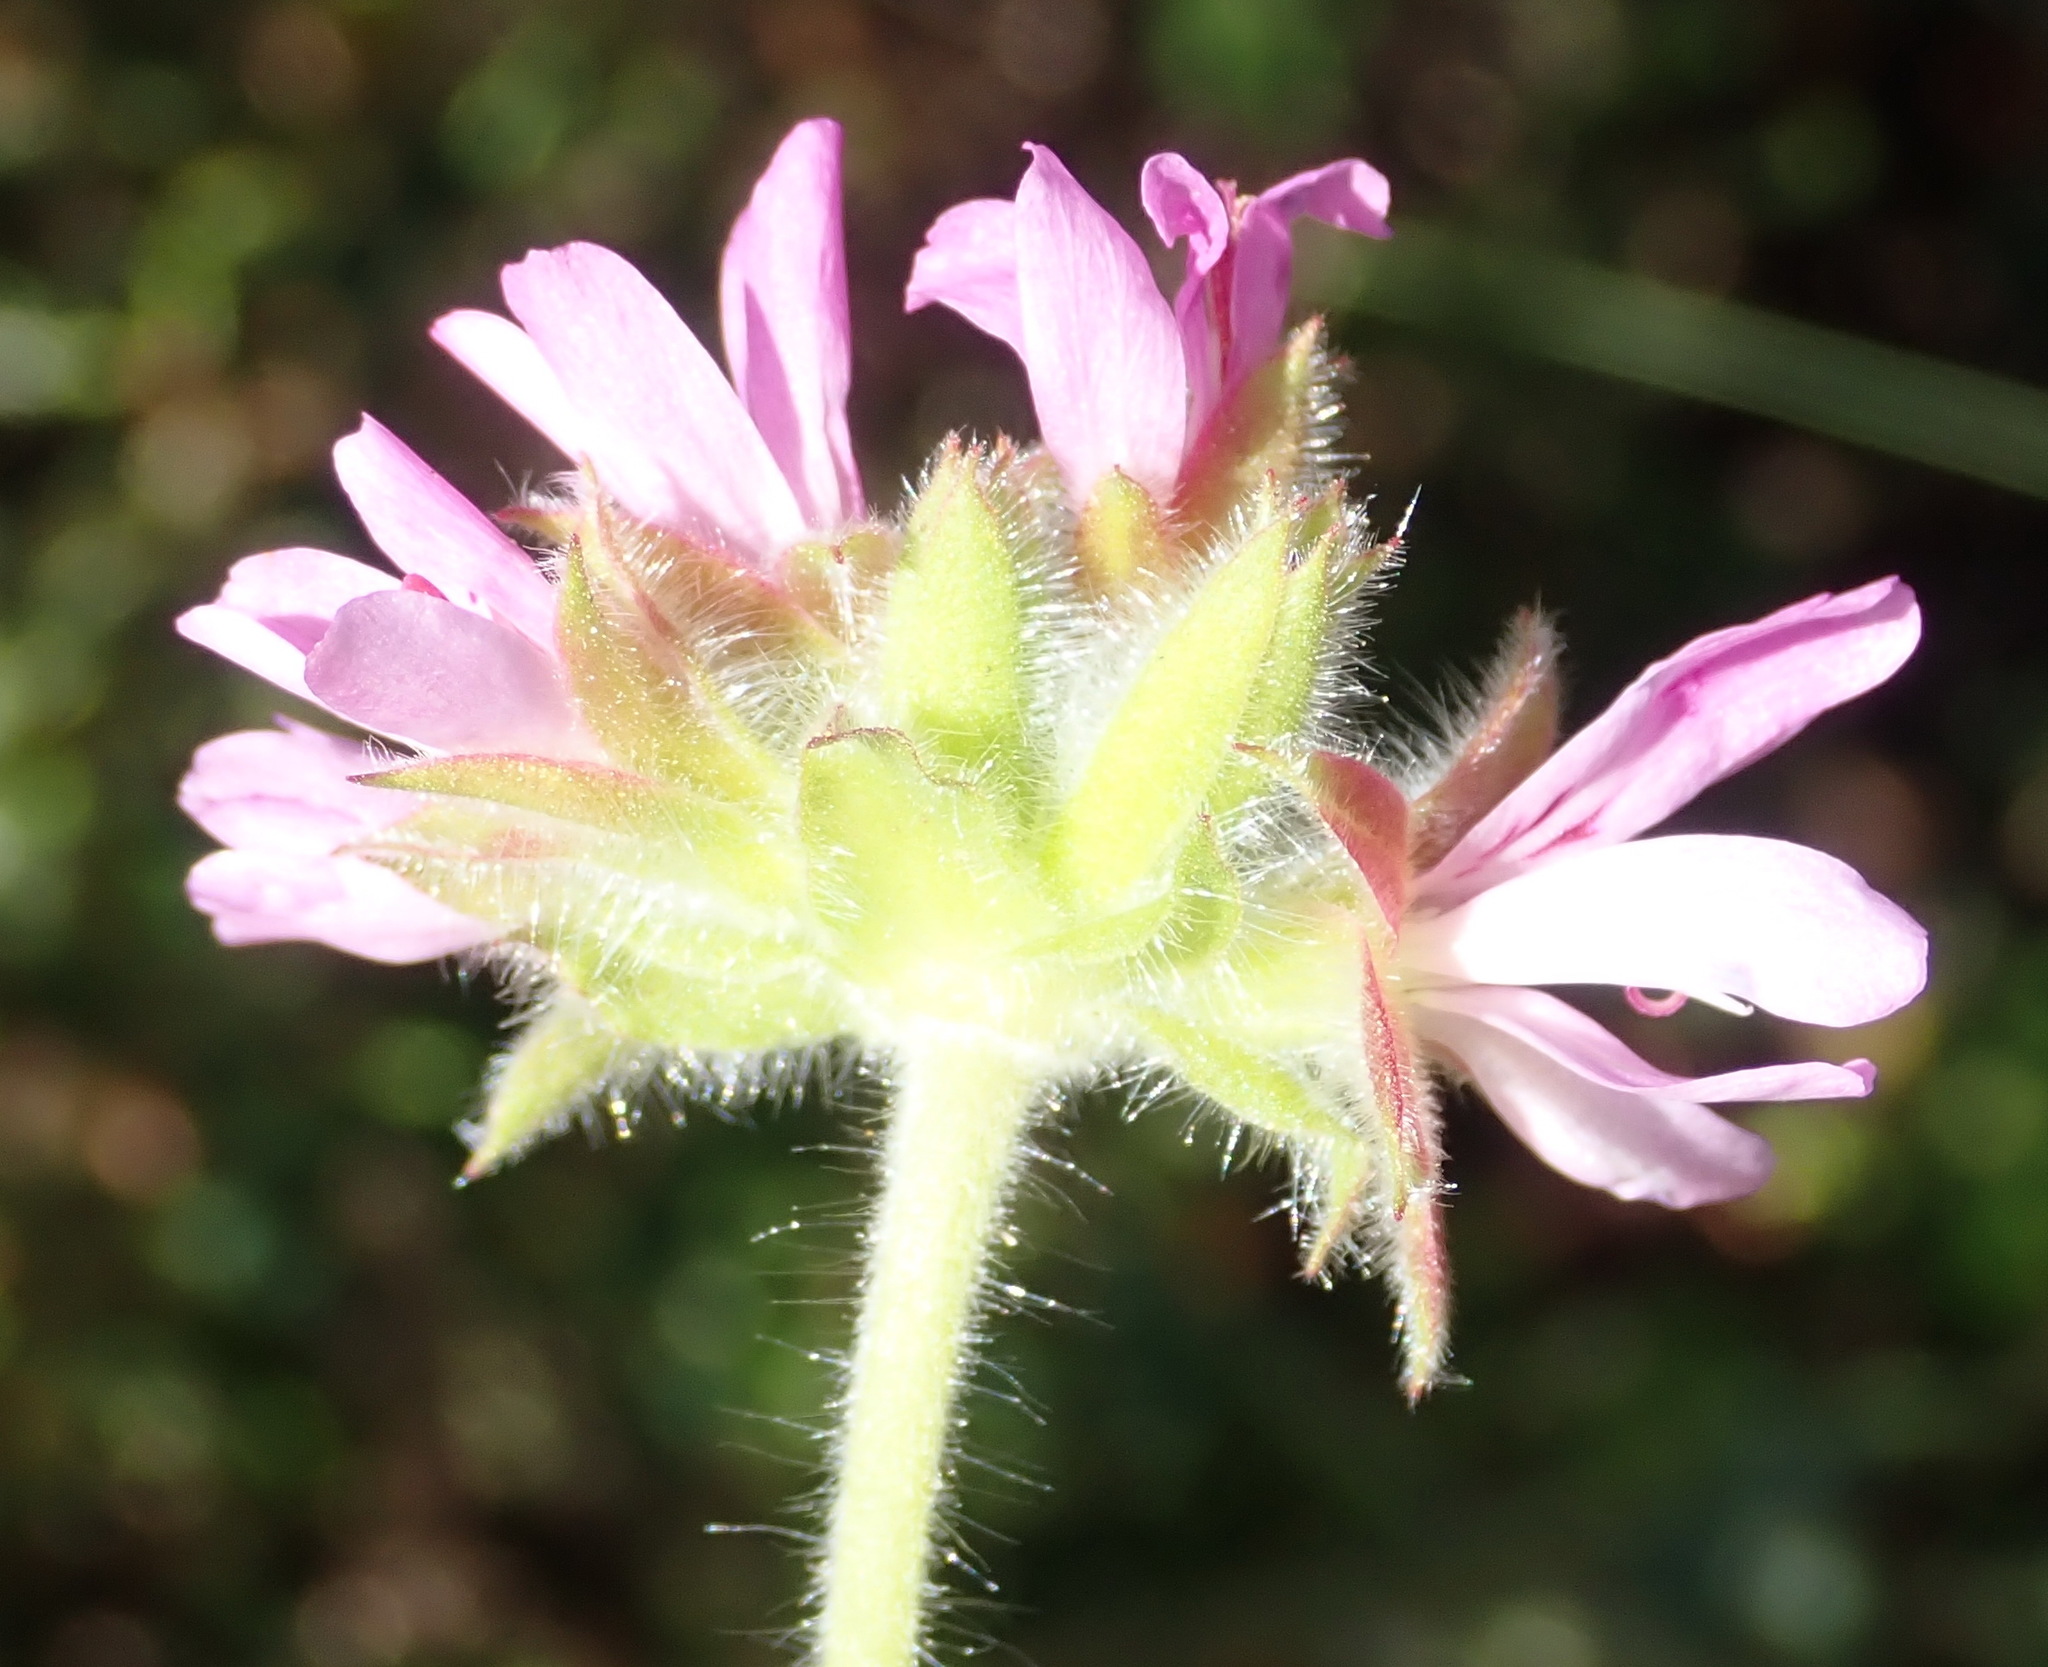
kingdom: Plantae
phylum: Tracheophyta
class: Magnoliopsida
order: Geraniales
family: Geraniaceae
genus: Pelargonium
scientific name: Pelargonium capitatum
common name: Rose scented geranium
